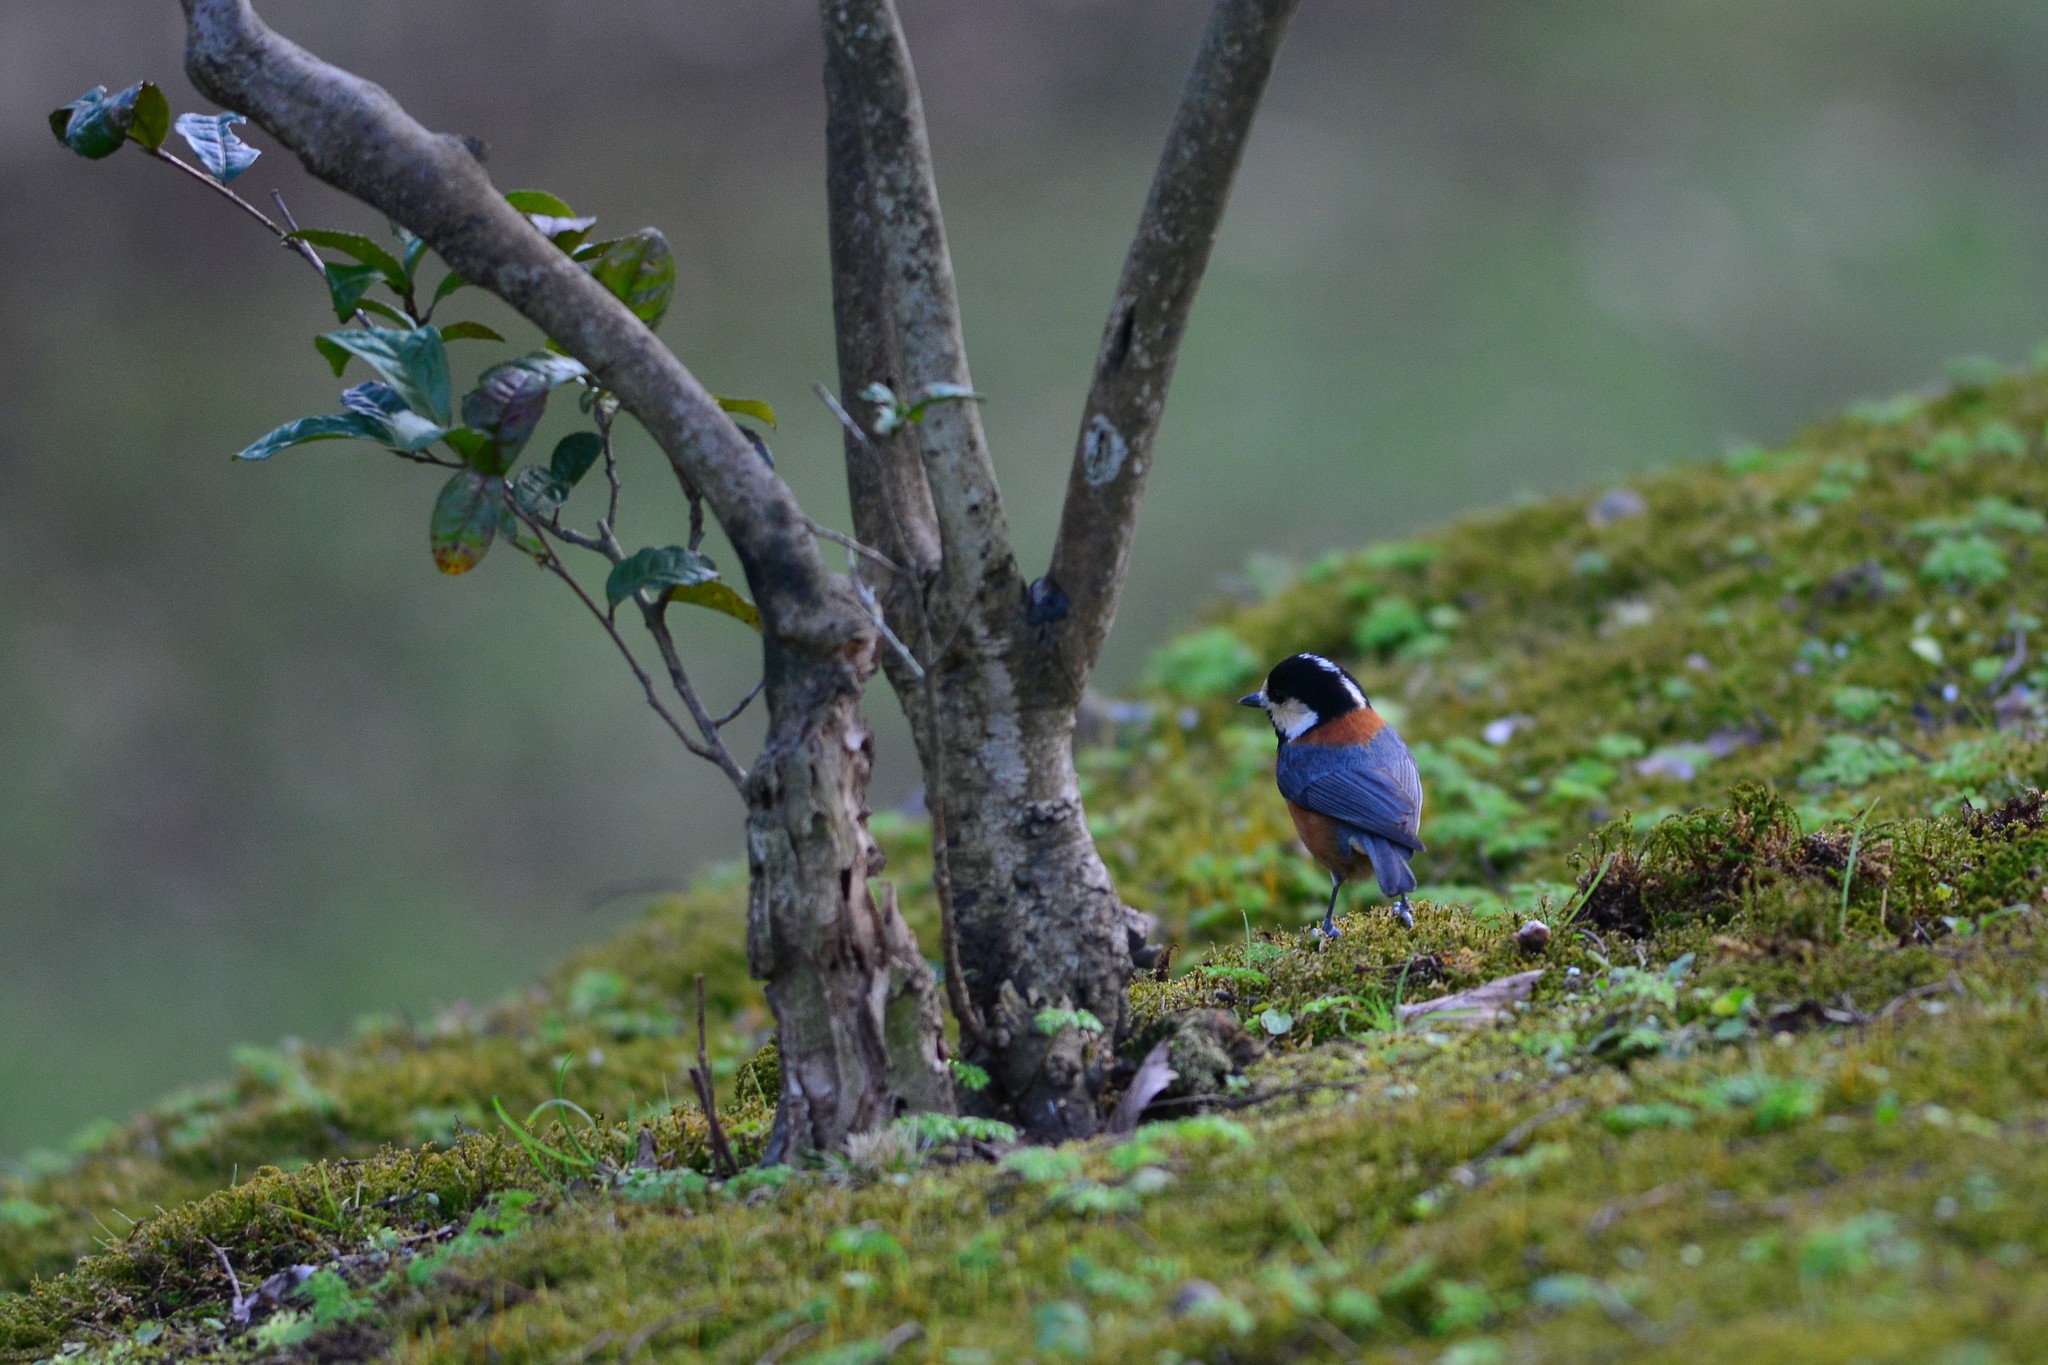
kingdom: Animalia
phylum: Chordata
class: Aves
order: Passeriformes
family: Paridae
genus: Poecile
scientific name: Poecile varius
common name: Varied tit
